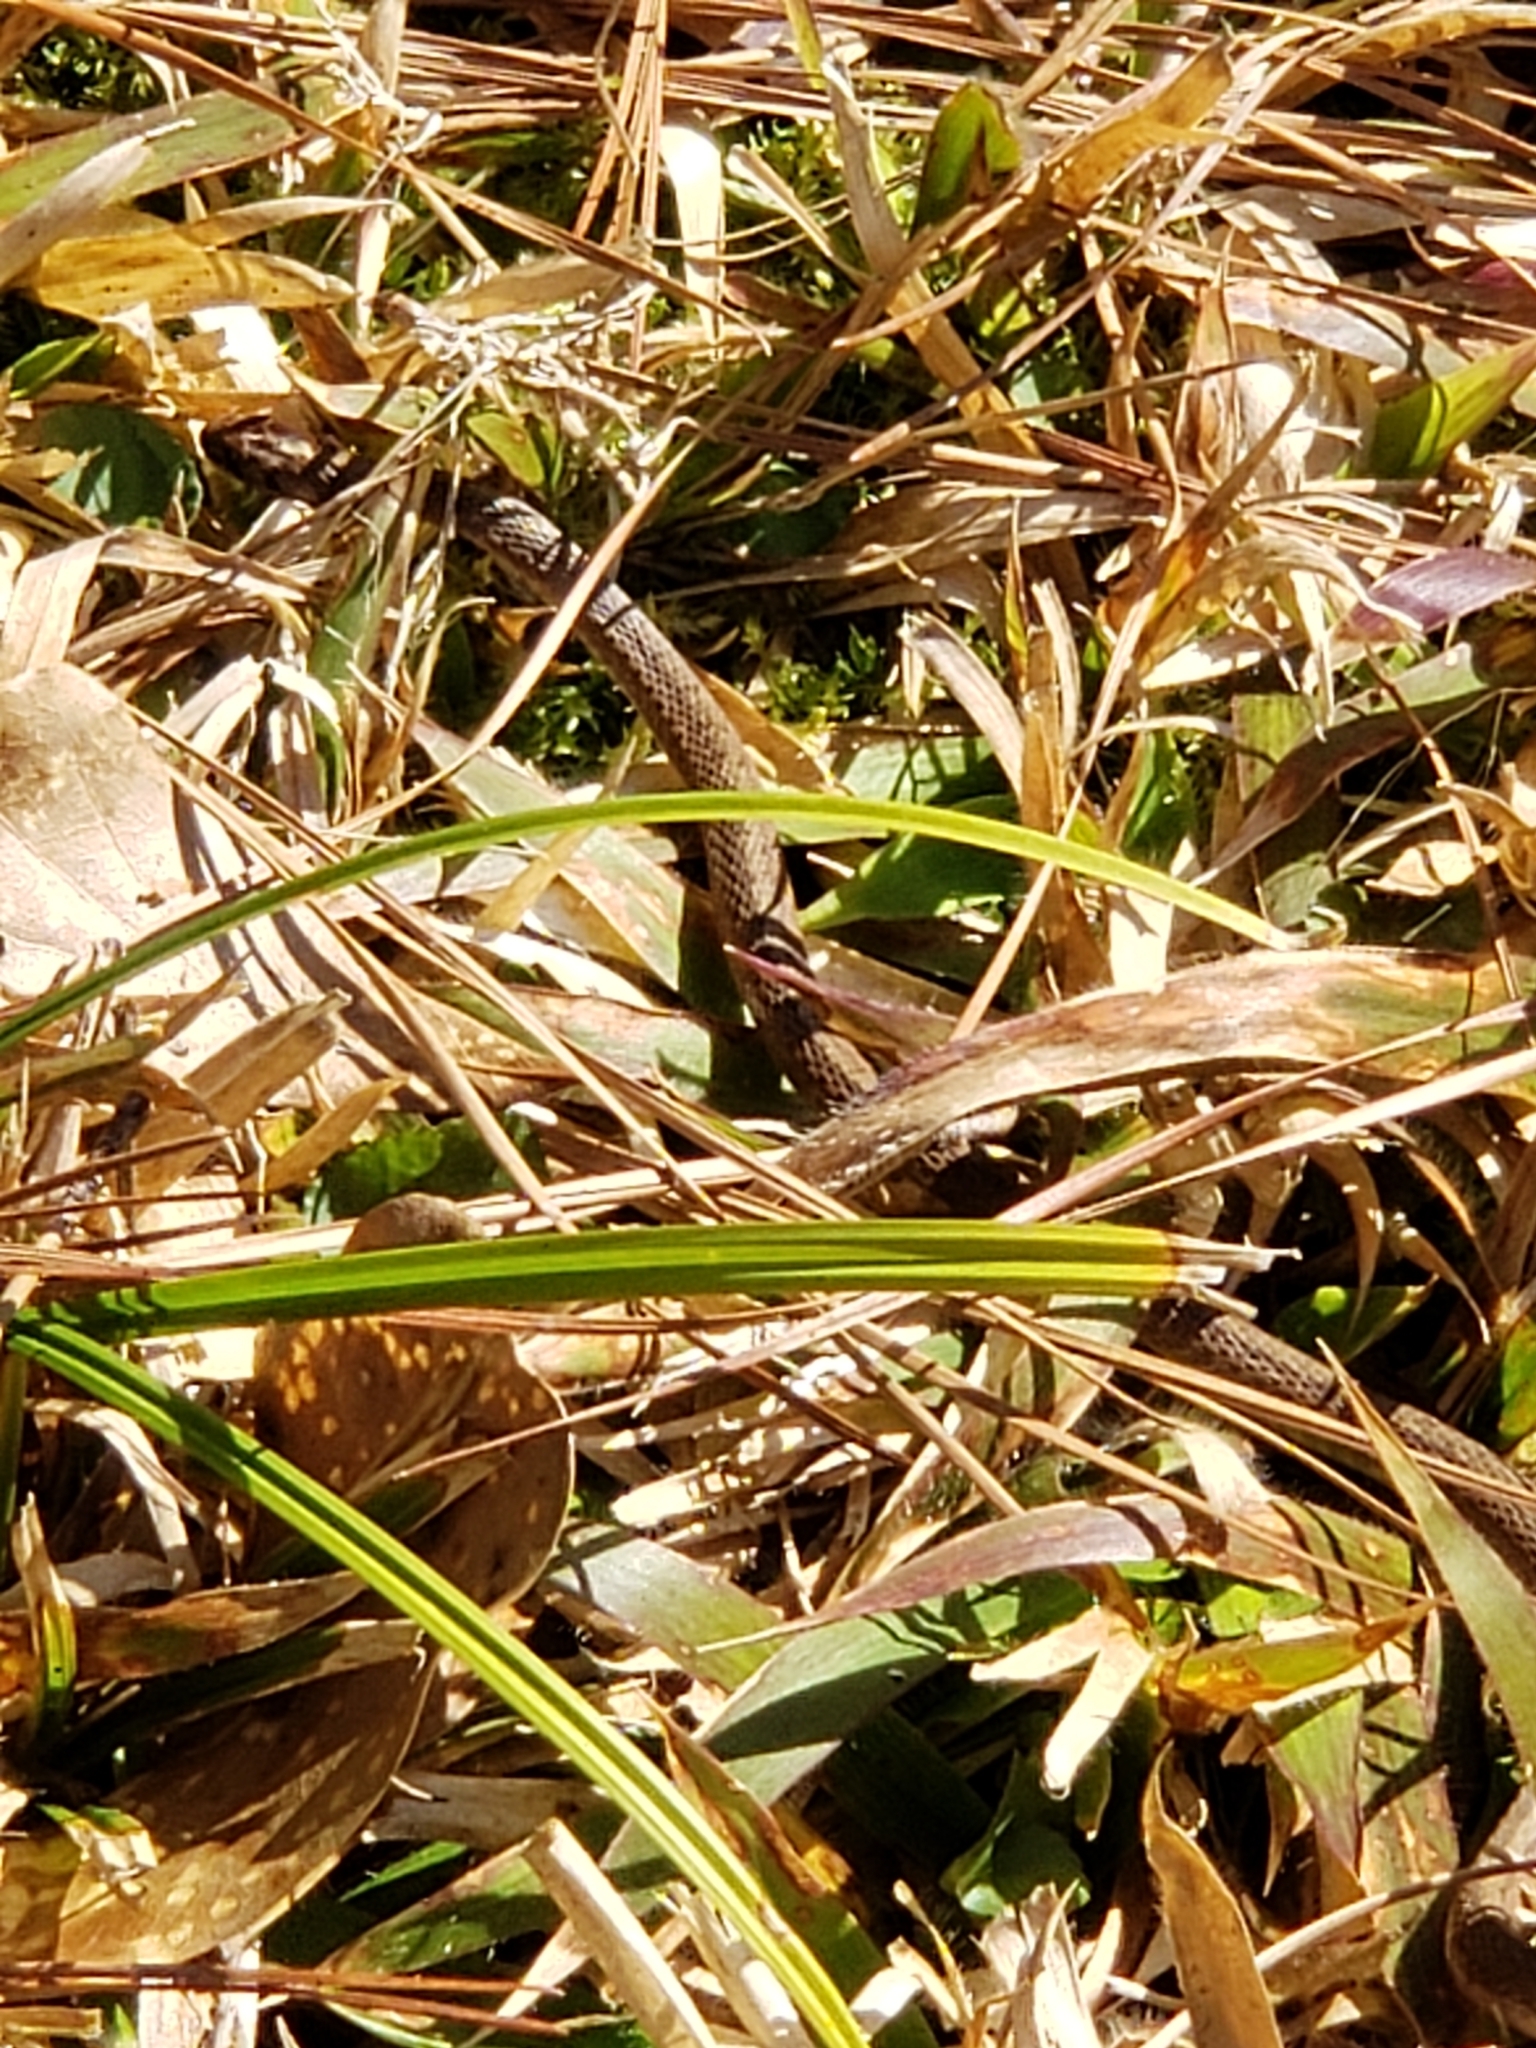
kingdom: Animalia
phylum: Chordata
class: Squamata
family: Colubridae
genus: Storeria
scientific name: Storeria dekayi
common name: (dekay’s) brown snake
